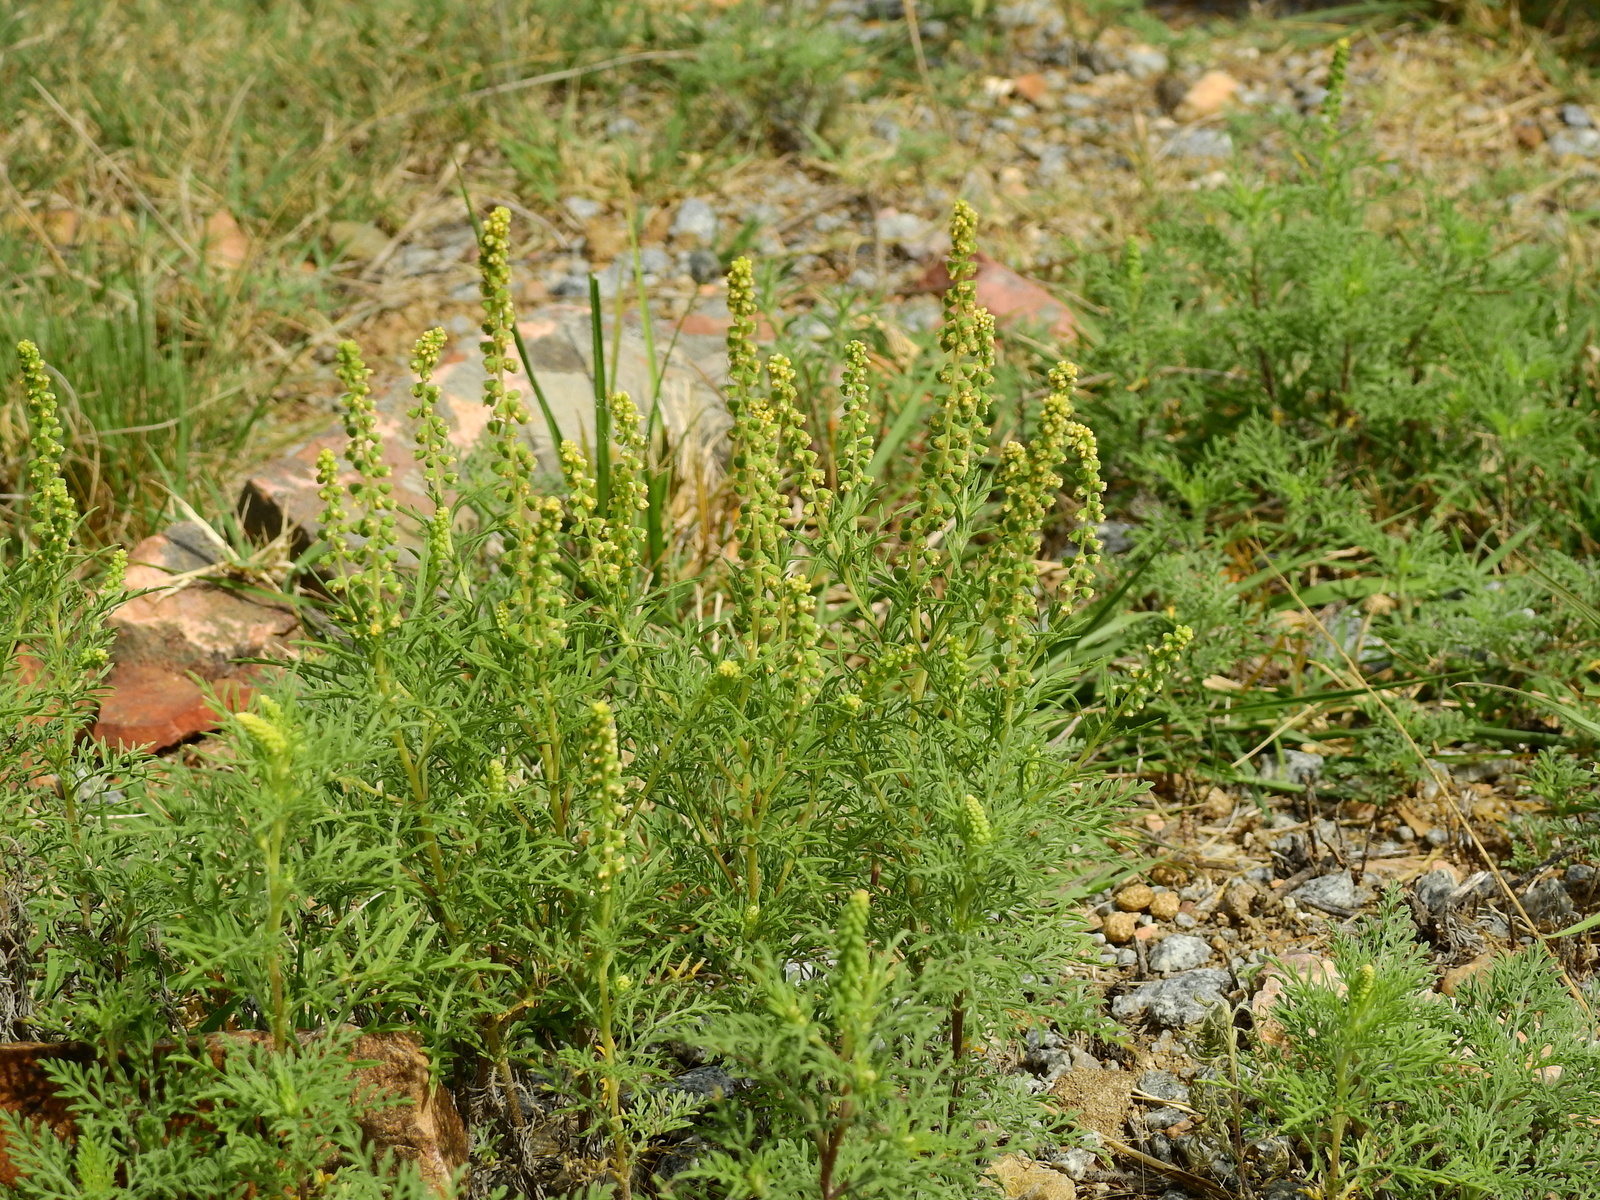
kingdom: Plantae
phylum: Tracheophyta
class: Magnoliopsida
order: Asterales
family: Asteraceae
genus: Ambrosia
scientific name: Ambrosia tenuifolia
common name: Lacy ambrosia
